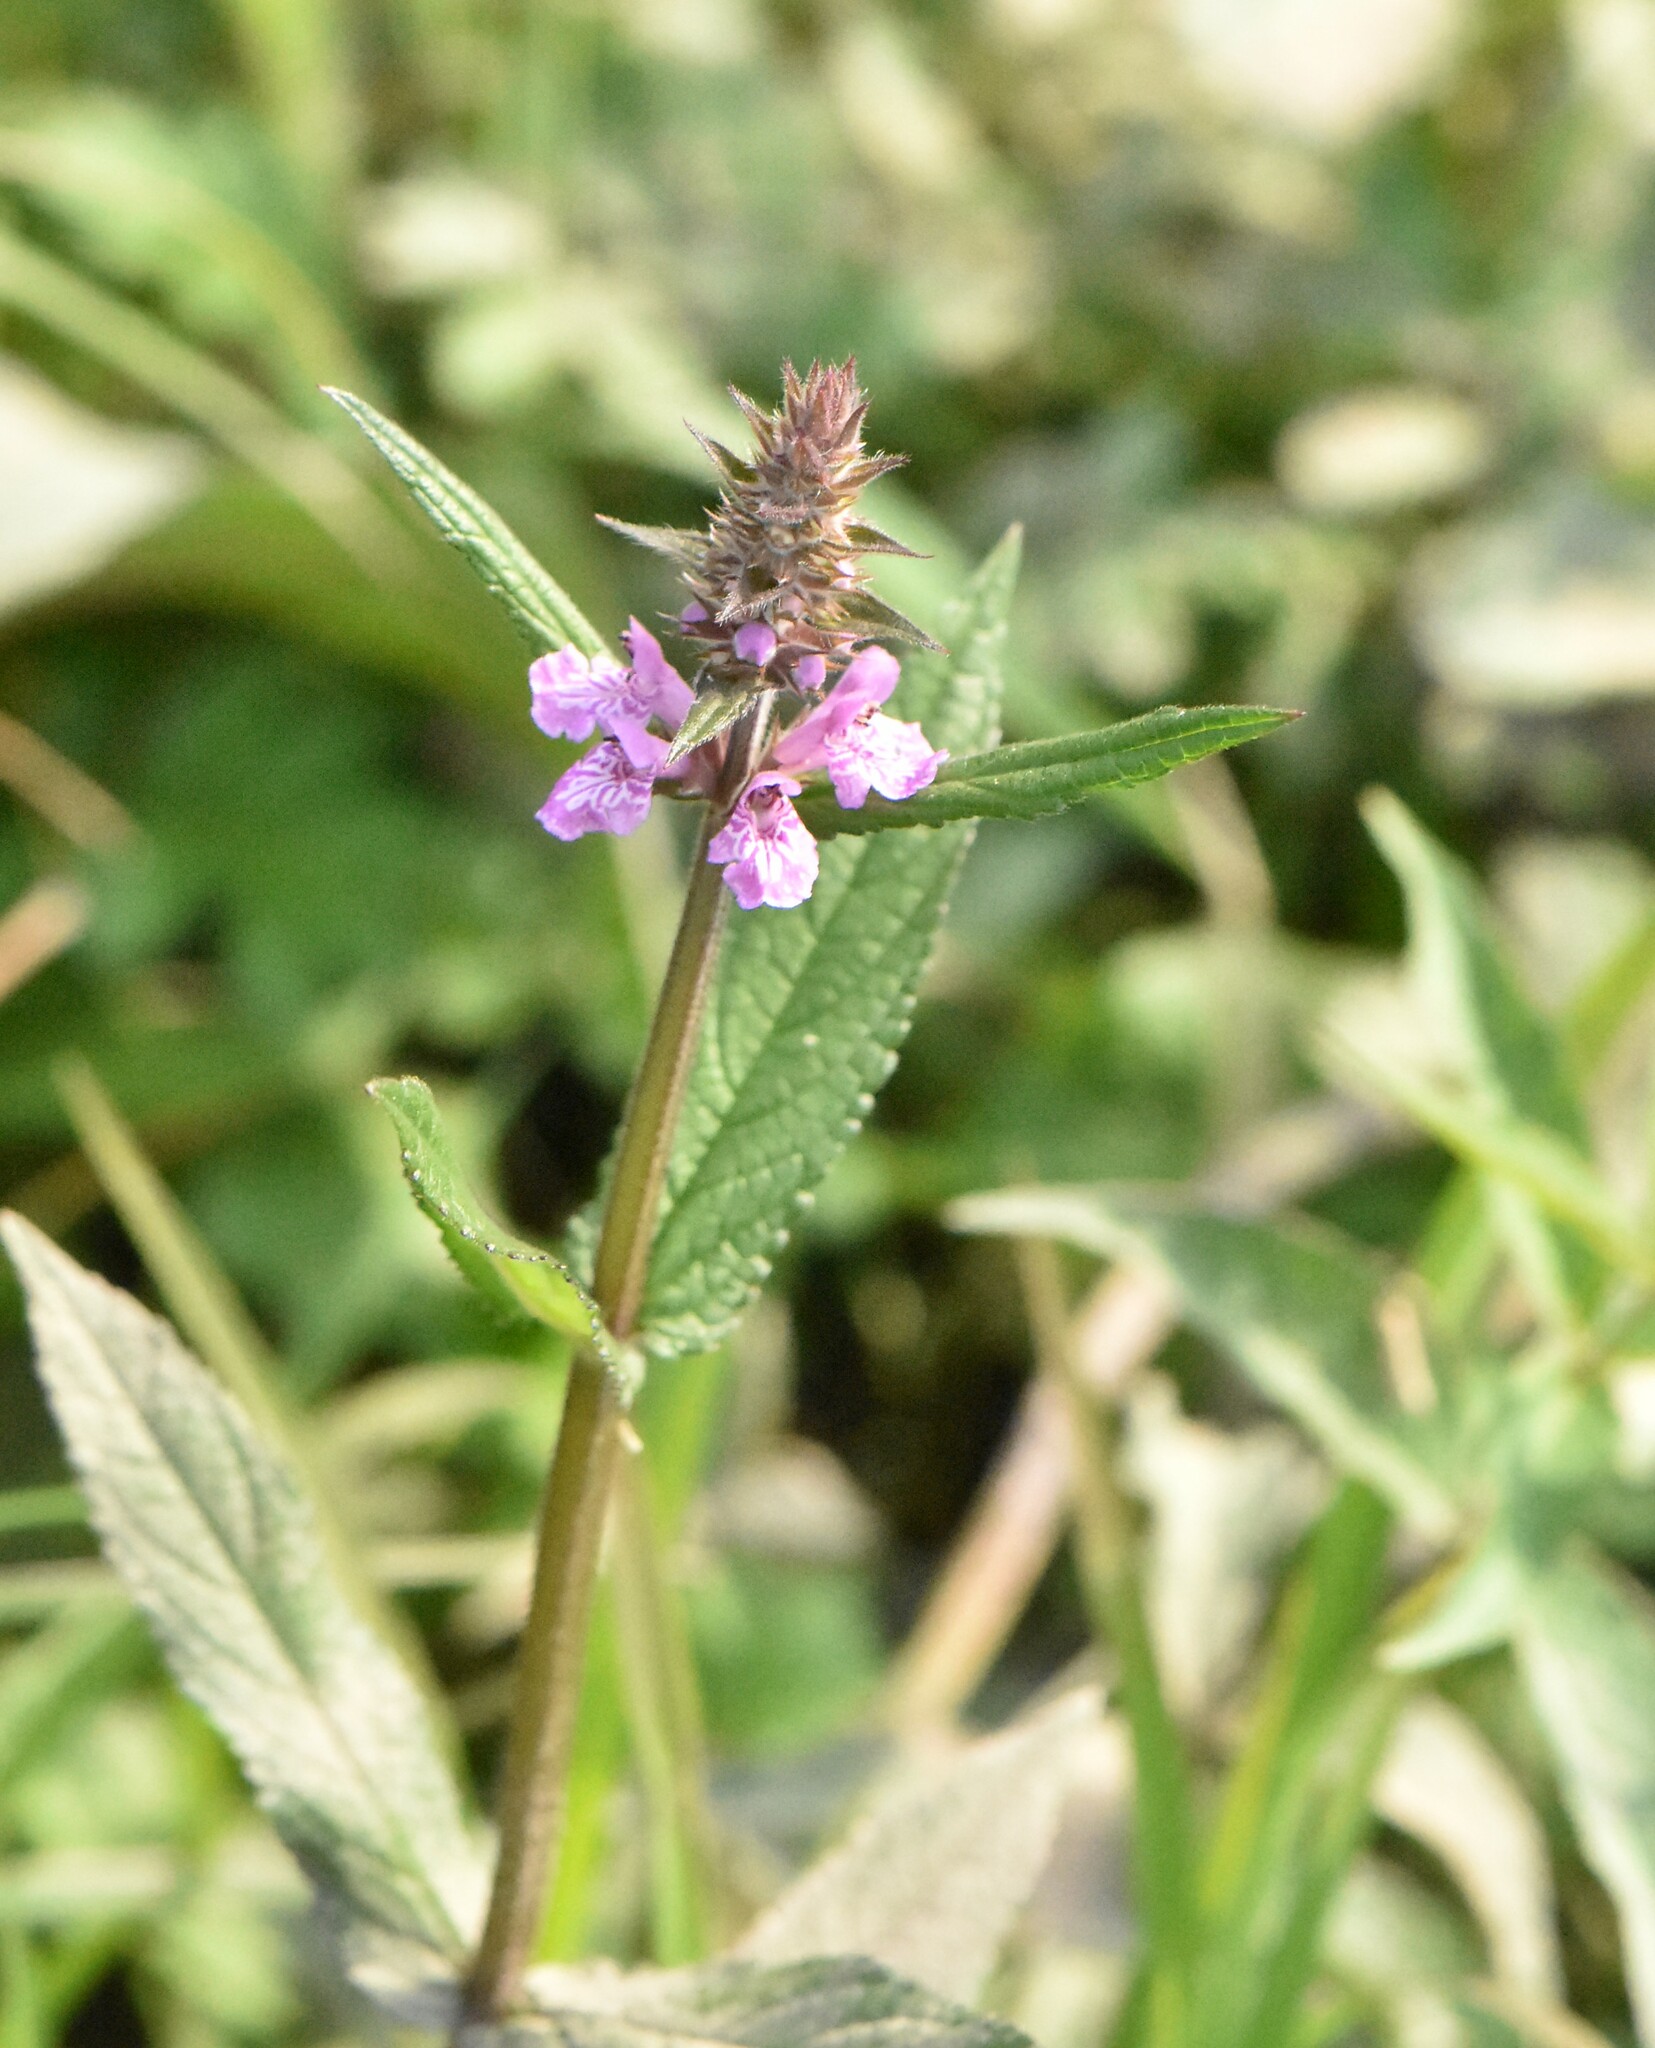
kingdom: Plantae
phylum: Tracheophyta
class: Magnoliopsida
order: Lamiales
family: Lamiaceae
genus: Stachys
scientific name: Stachys palustris
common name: Marsh woundwort
